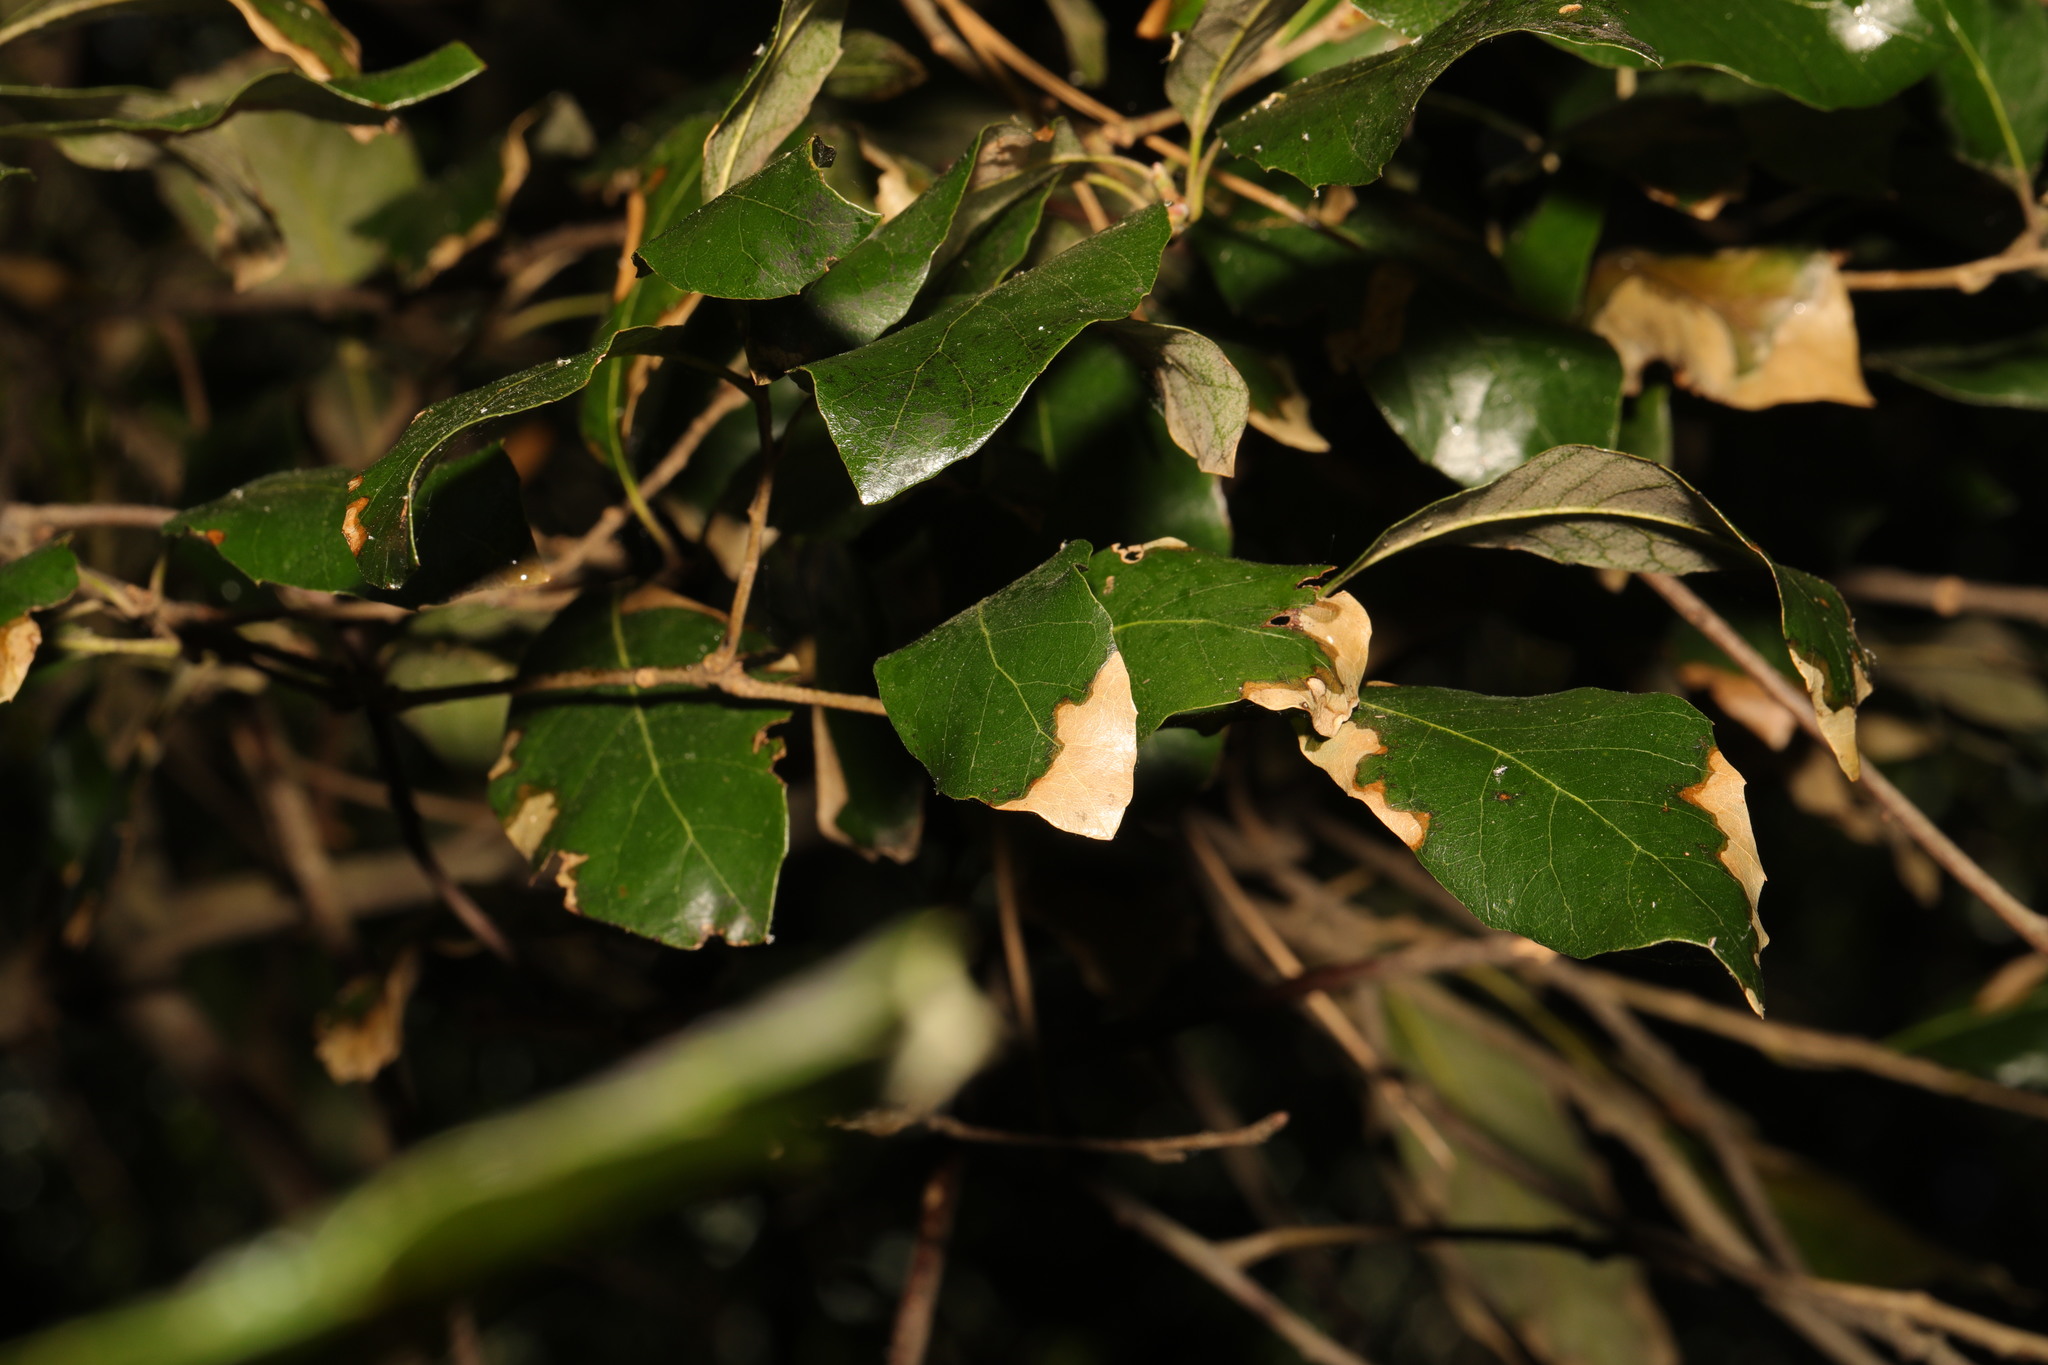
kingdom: Plantae
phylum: Tracheophyta
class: Magnoliopsida
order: Fagales
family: Fagaceae
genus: Quercus
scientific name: Quercus ilex
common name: Evergreen oak
